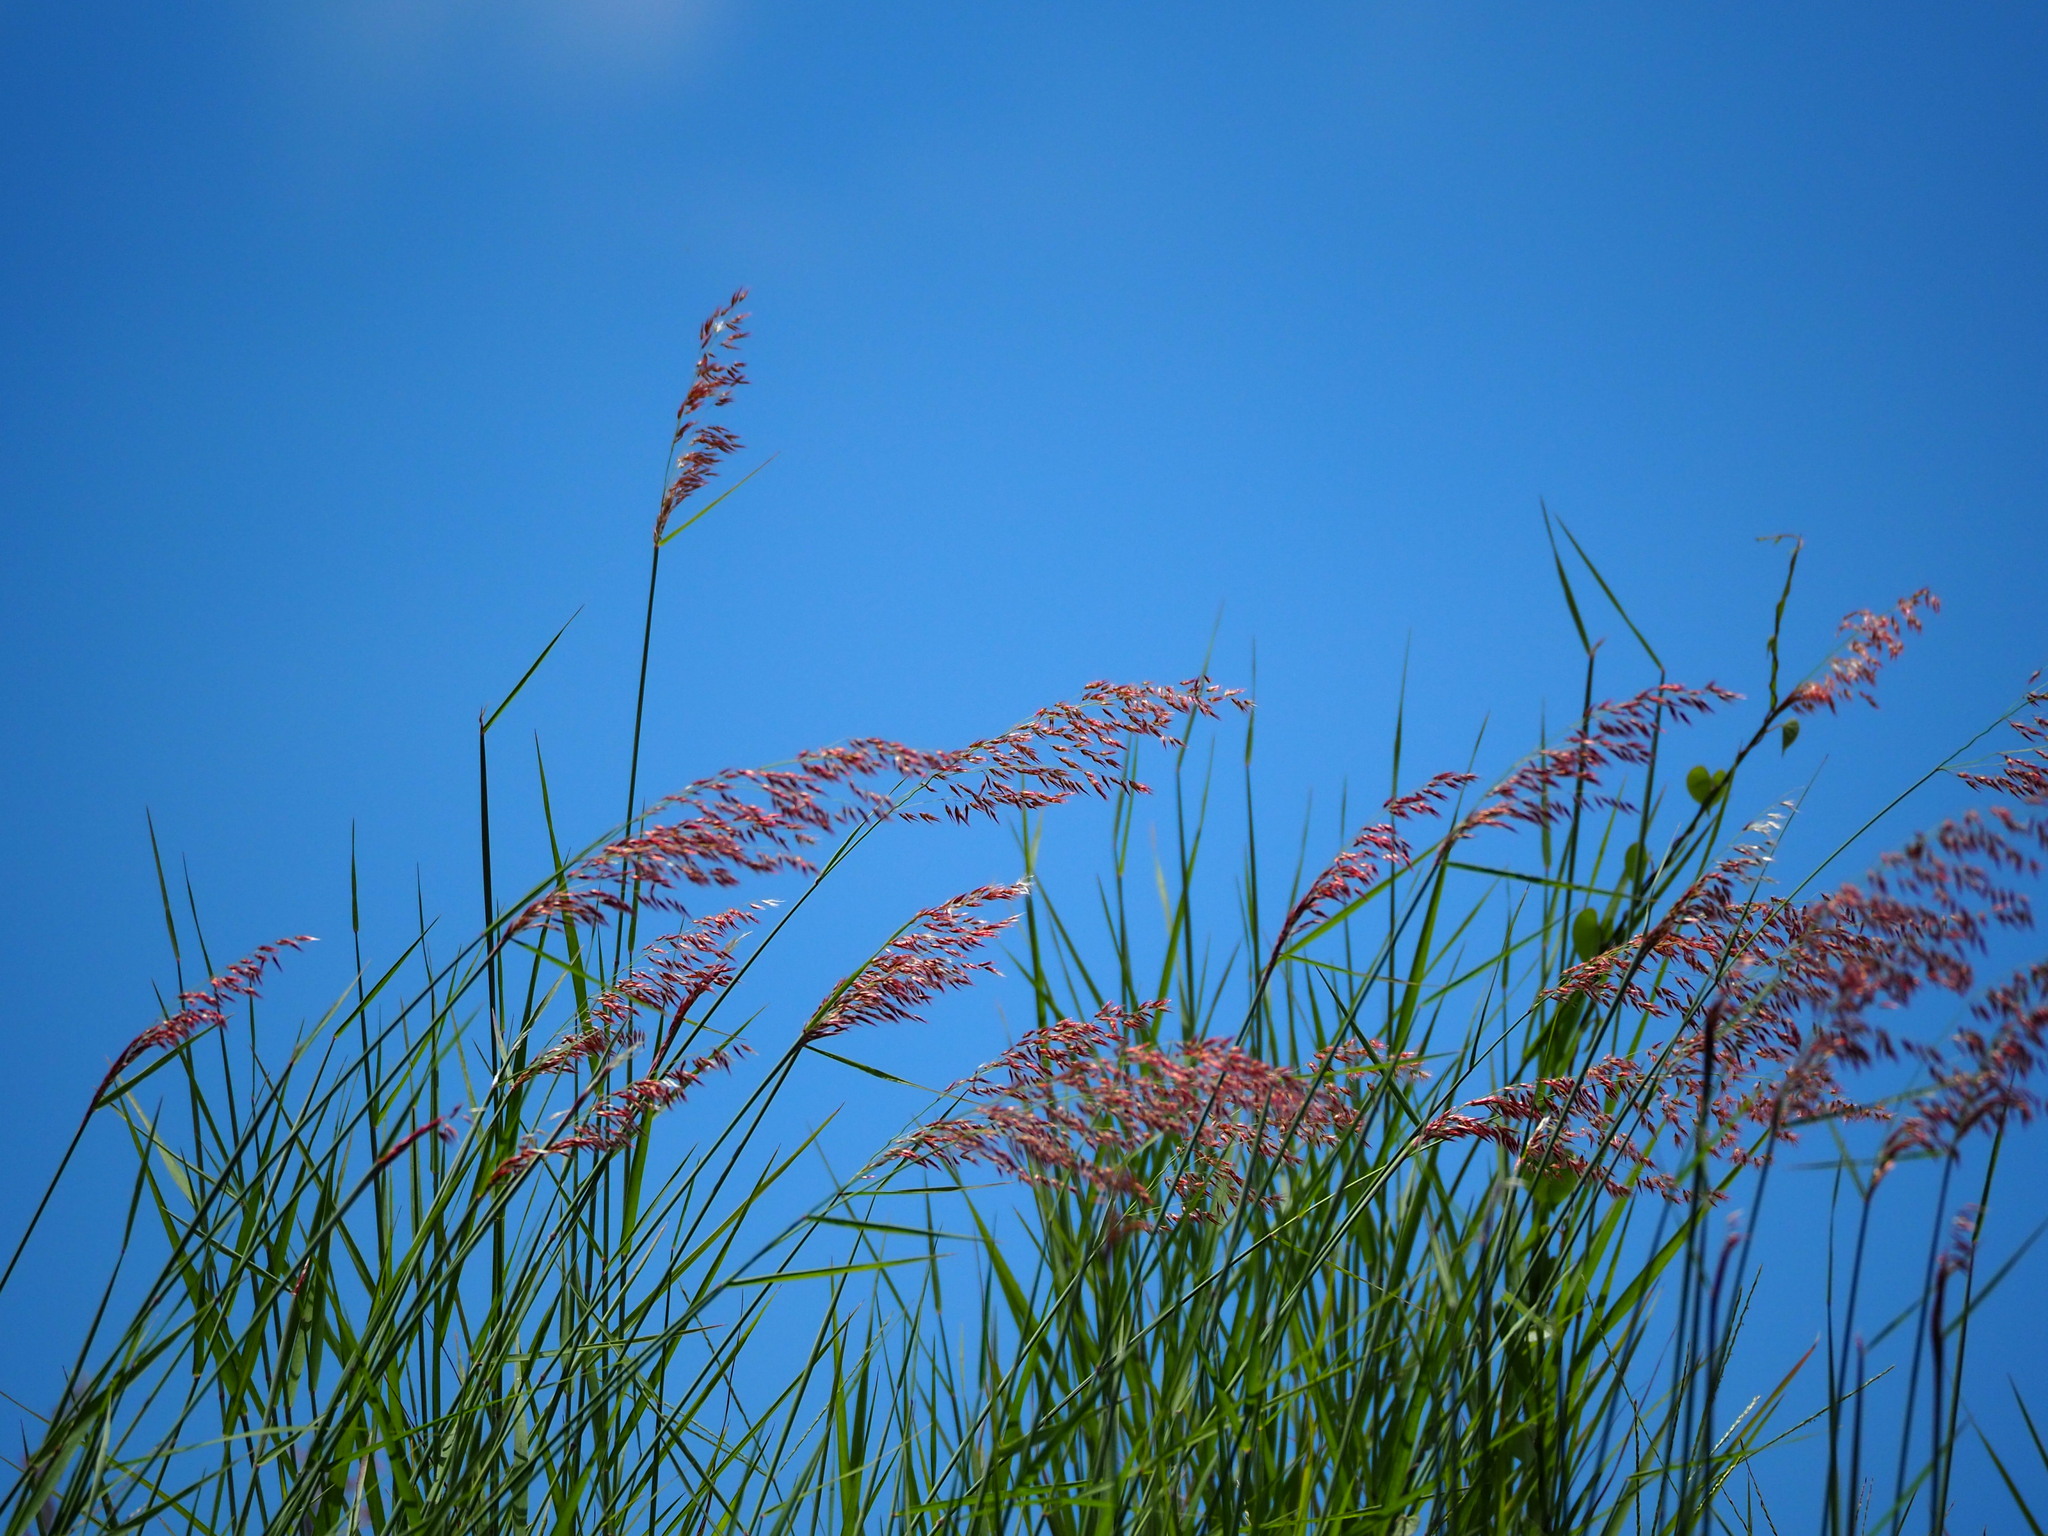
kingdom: Plantae
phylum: Tracheophyta
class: Liliopsida
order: Poales
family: Poaceae
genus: Melinis
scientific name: Melinis repens
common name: Rose natal grass
